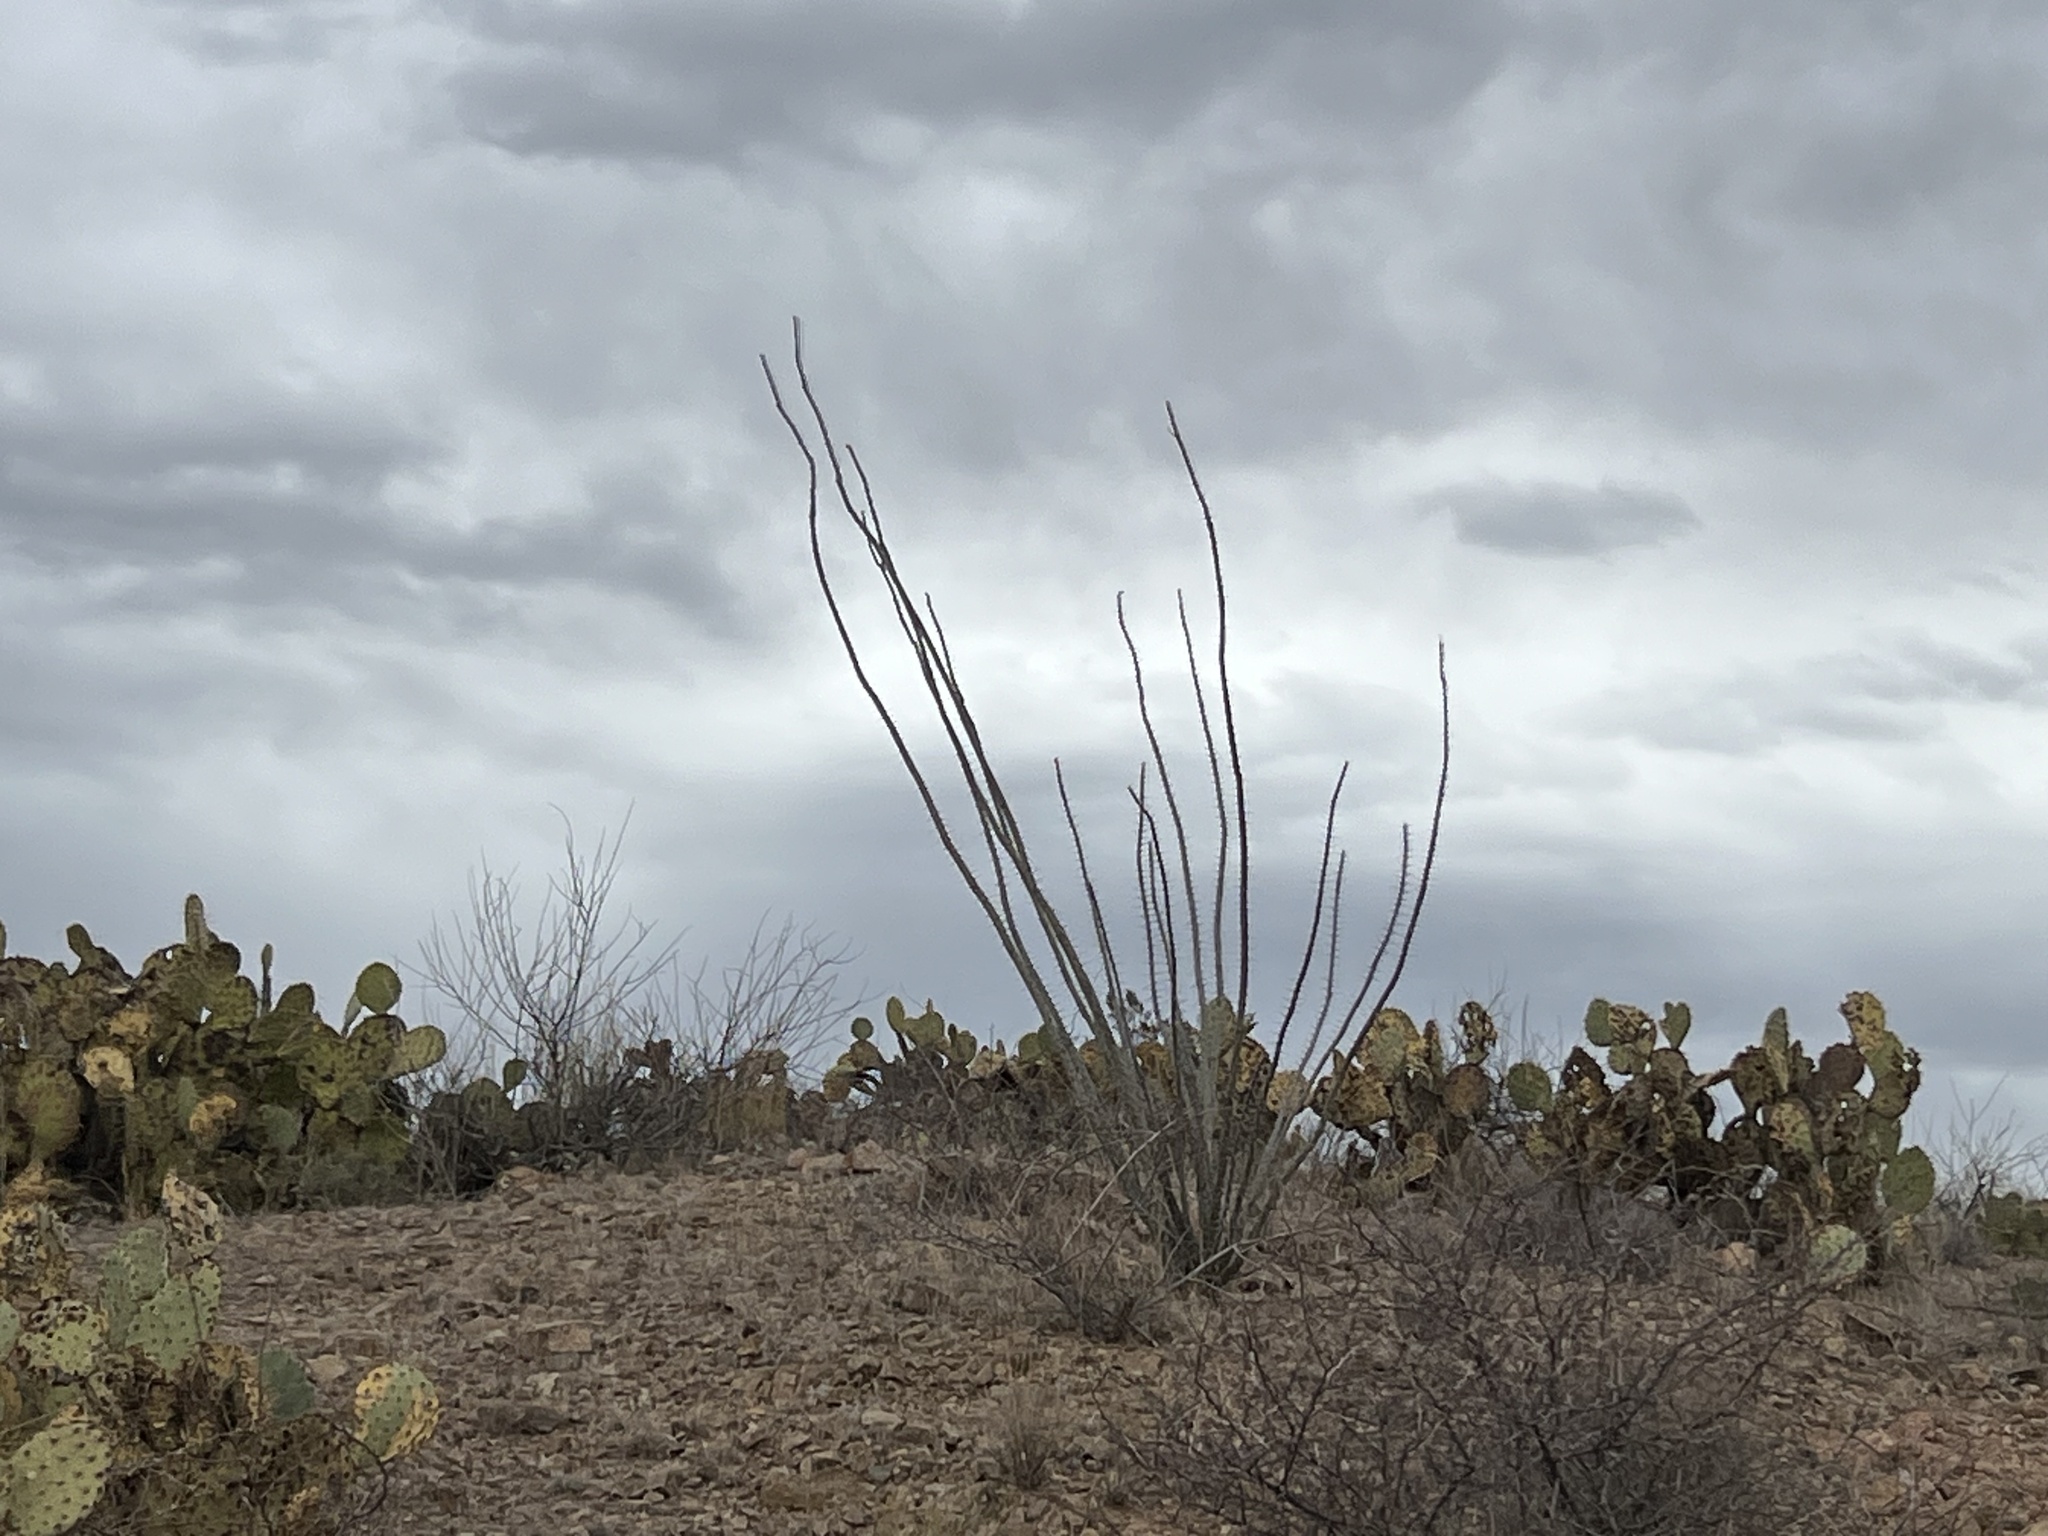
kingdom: Plantae
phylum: Tracheophyta
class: Magnoliopsida
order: Ericales
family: Fouquieriaceae
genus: Fouquieria
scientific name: Fouquieria splendens
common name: Vine-cactus
